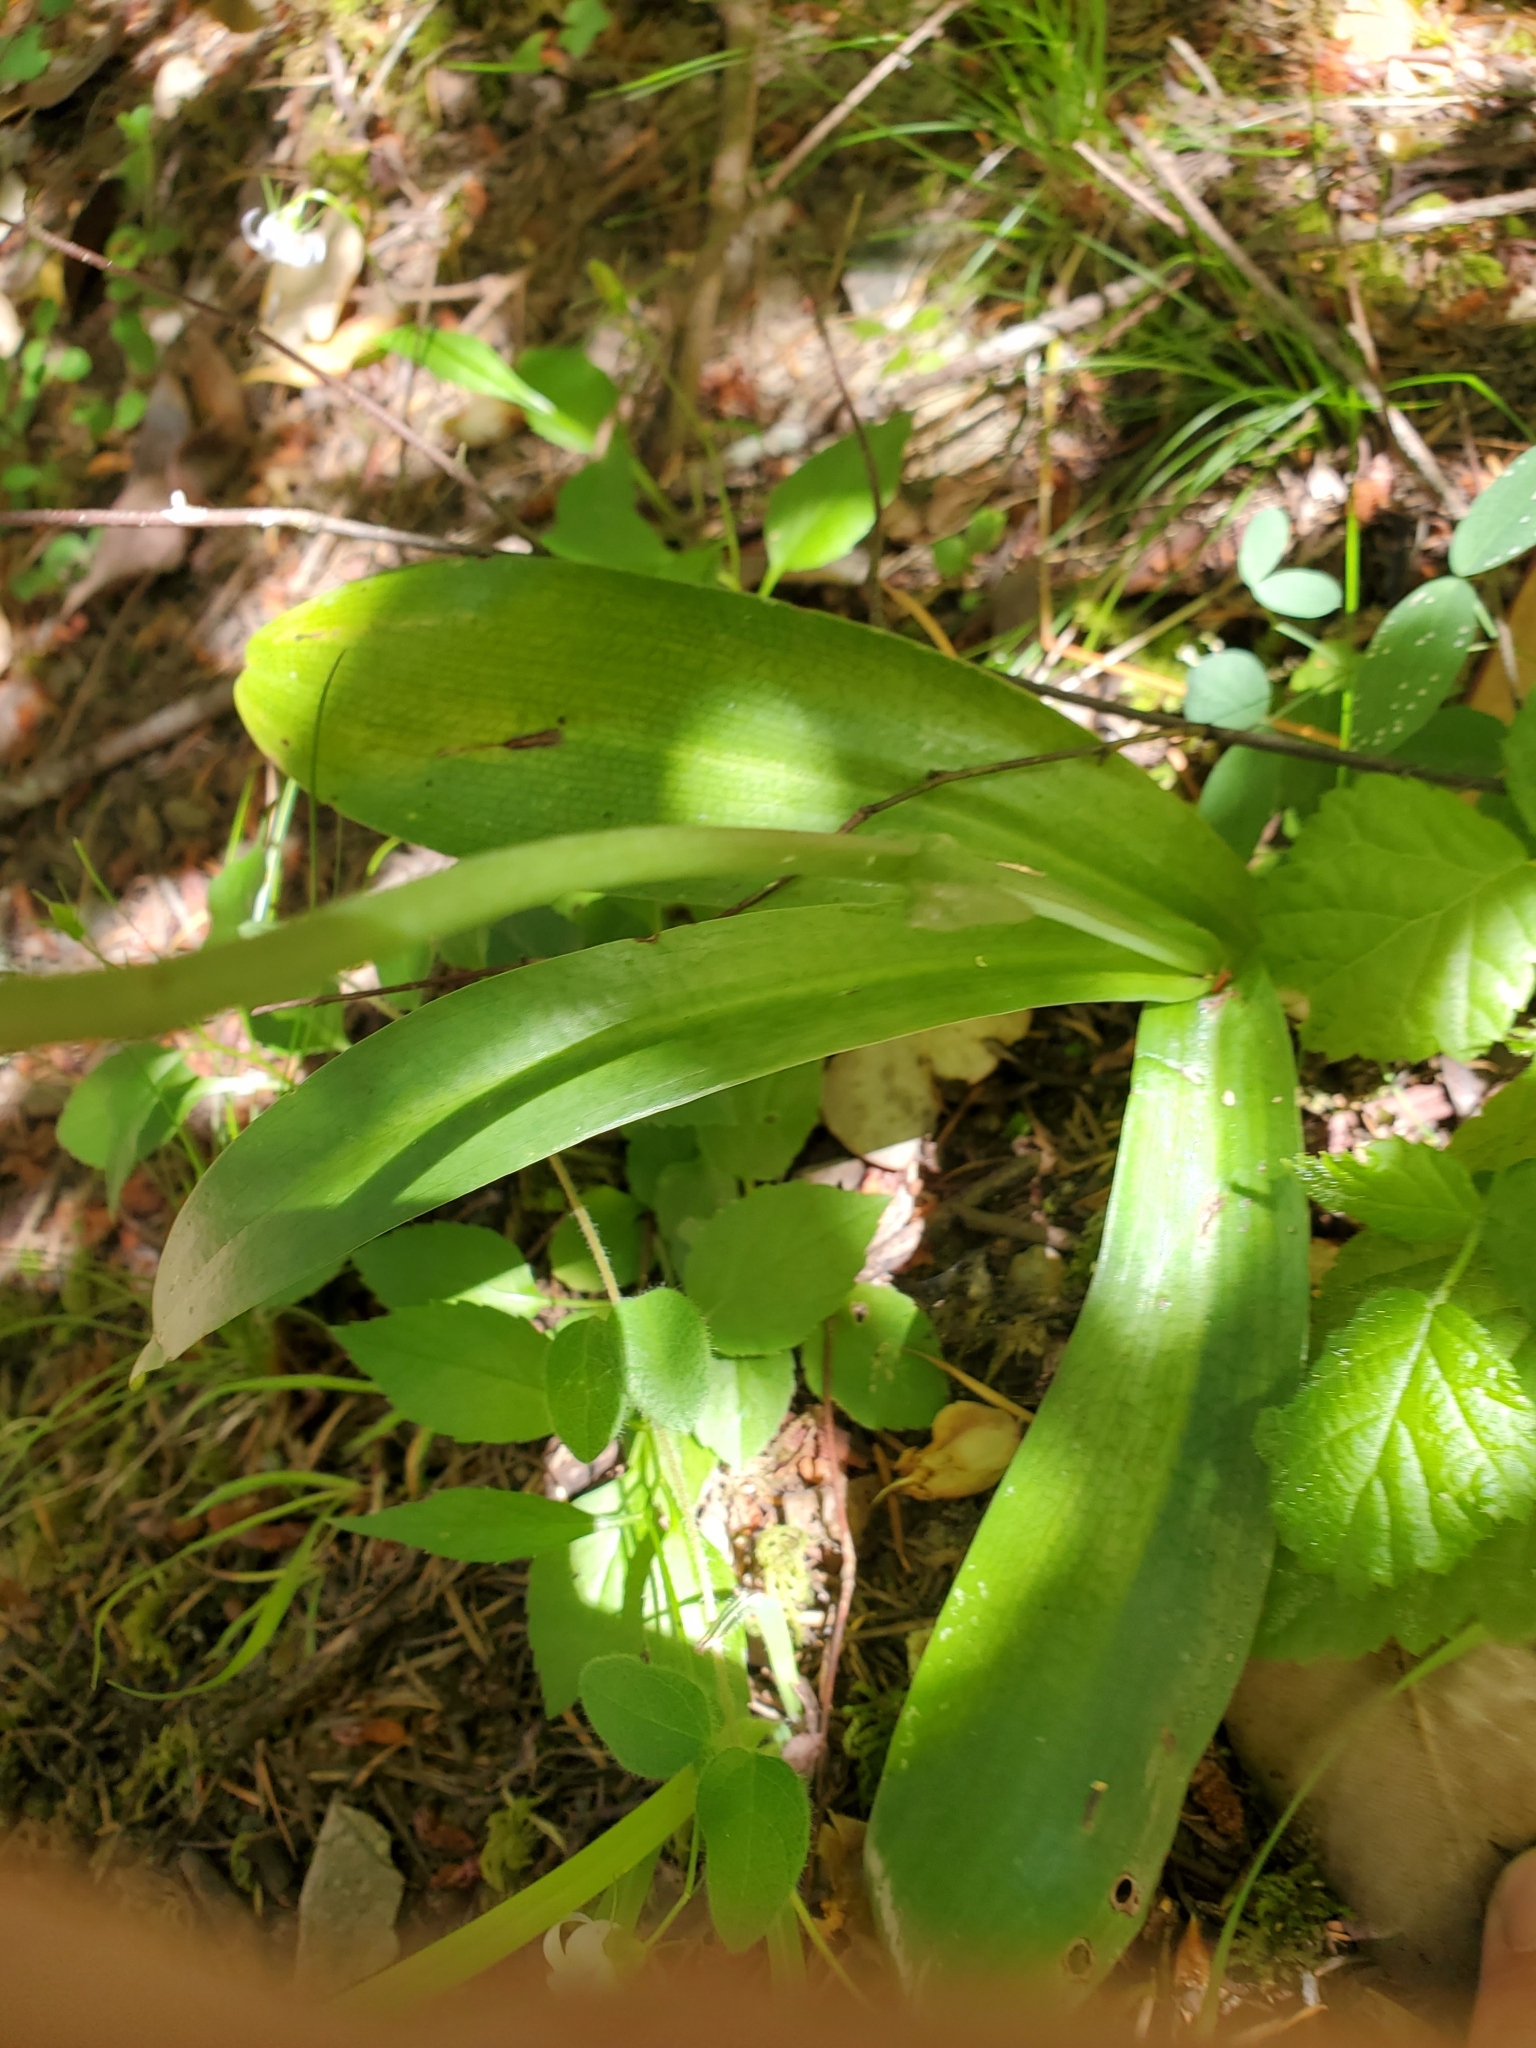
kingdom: Plantae
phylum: Tracheophyta
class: Liliopsida
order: Asparagales
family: Orchidaceae
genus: Platanthera
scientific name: Platanthera ephemerantha
